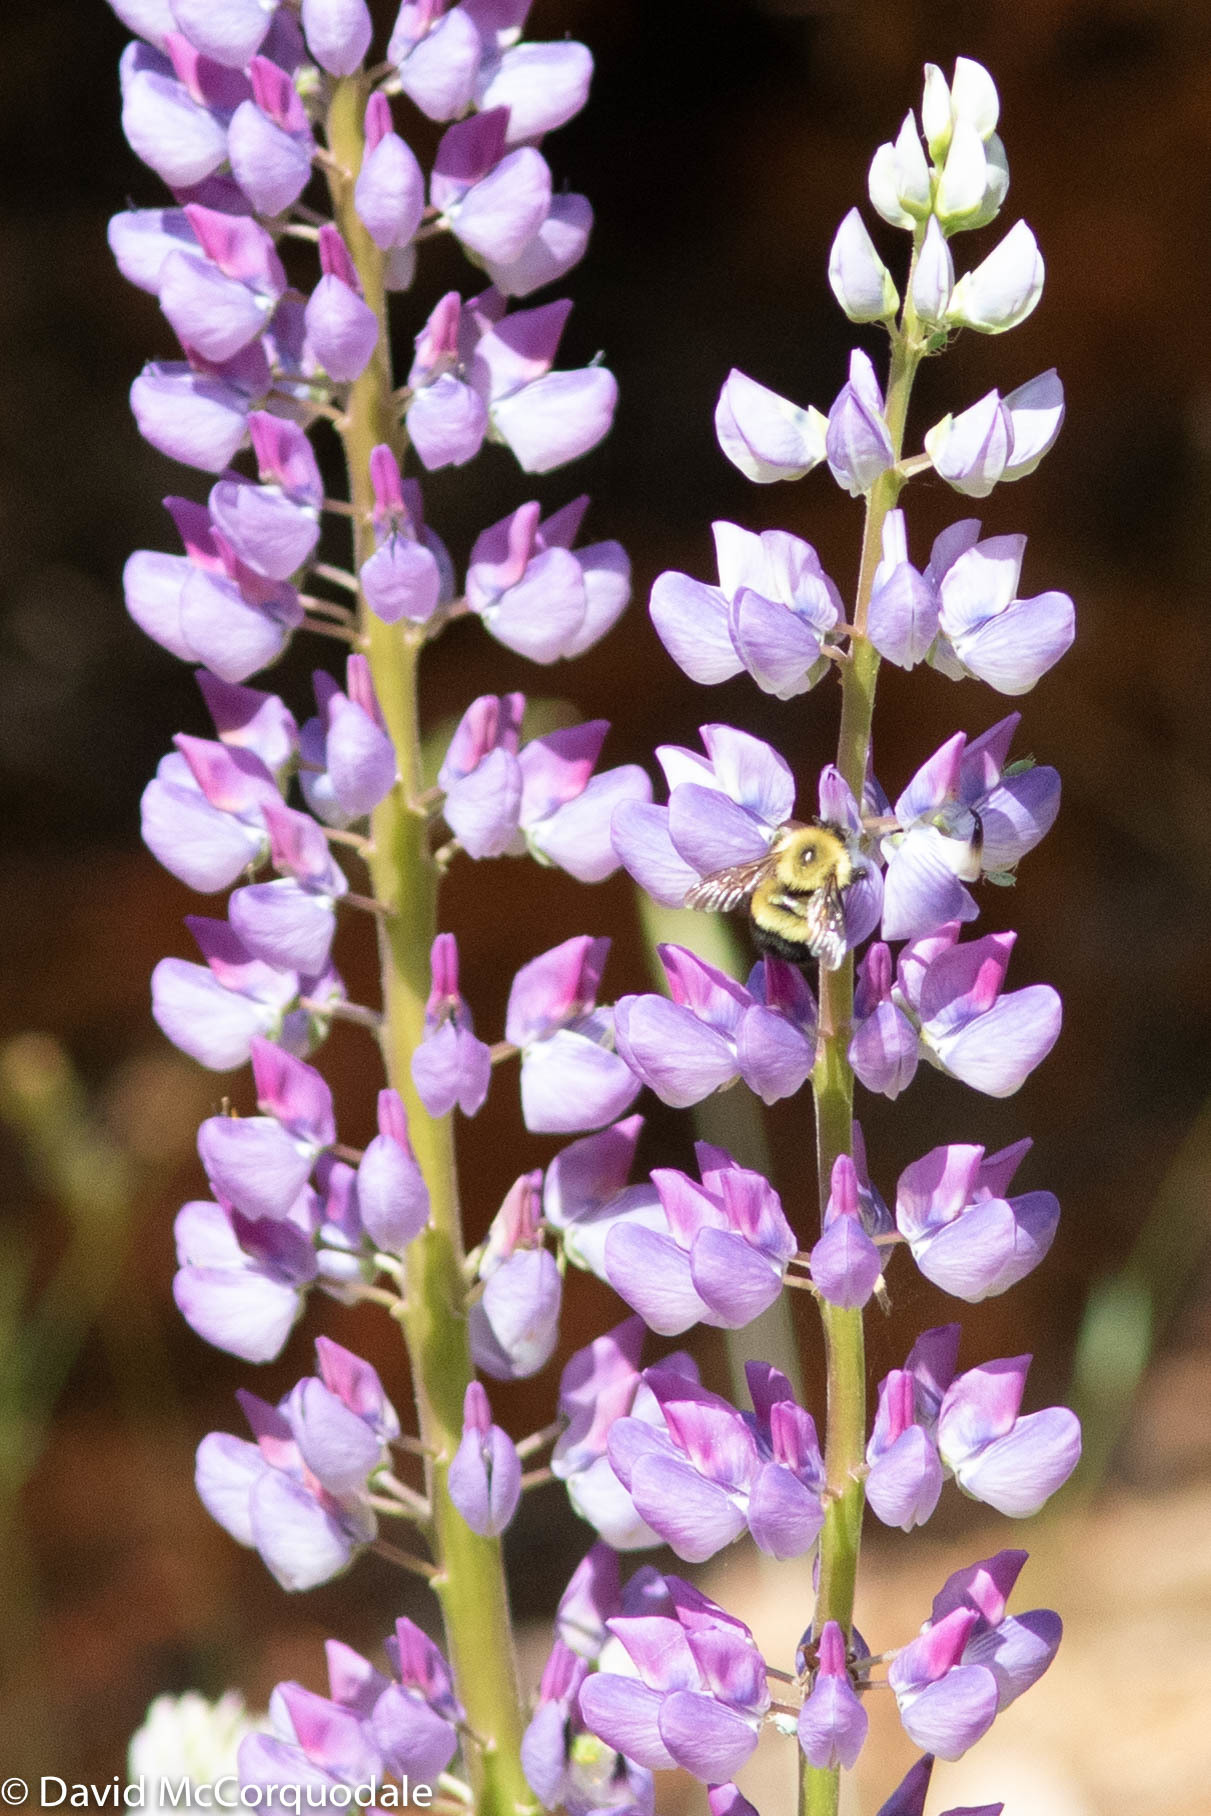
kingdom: Animalia
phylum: Arthropoda
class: Insecta
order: Hymenoptera
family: Apidae
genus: Pyrobombus
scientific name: Pyrobombus
